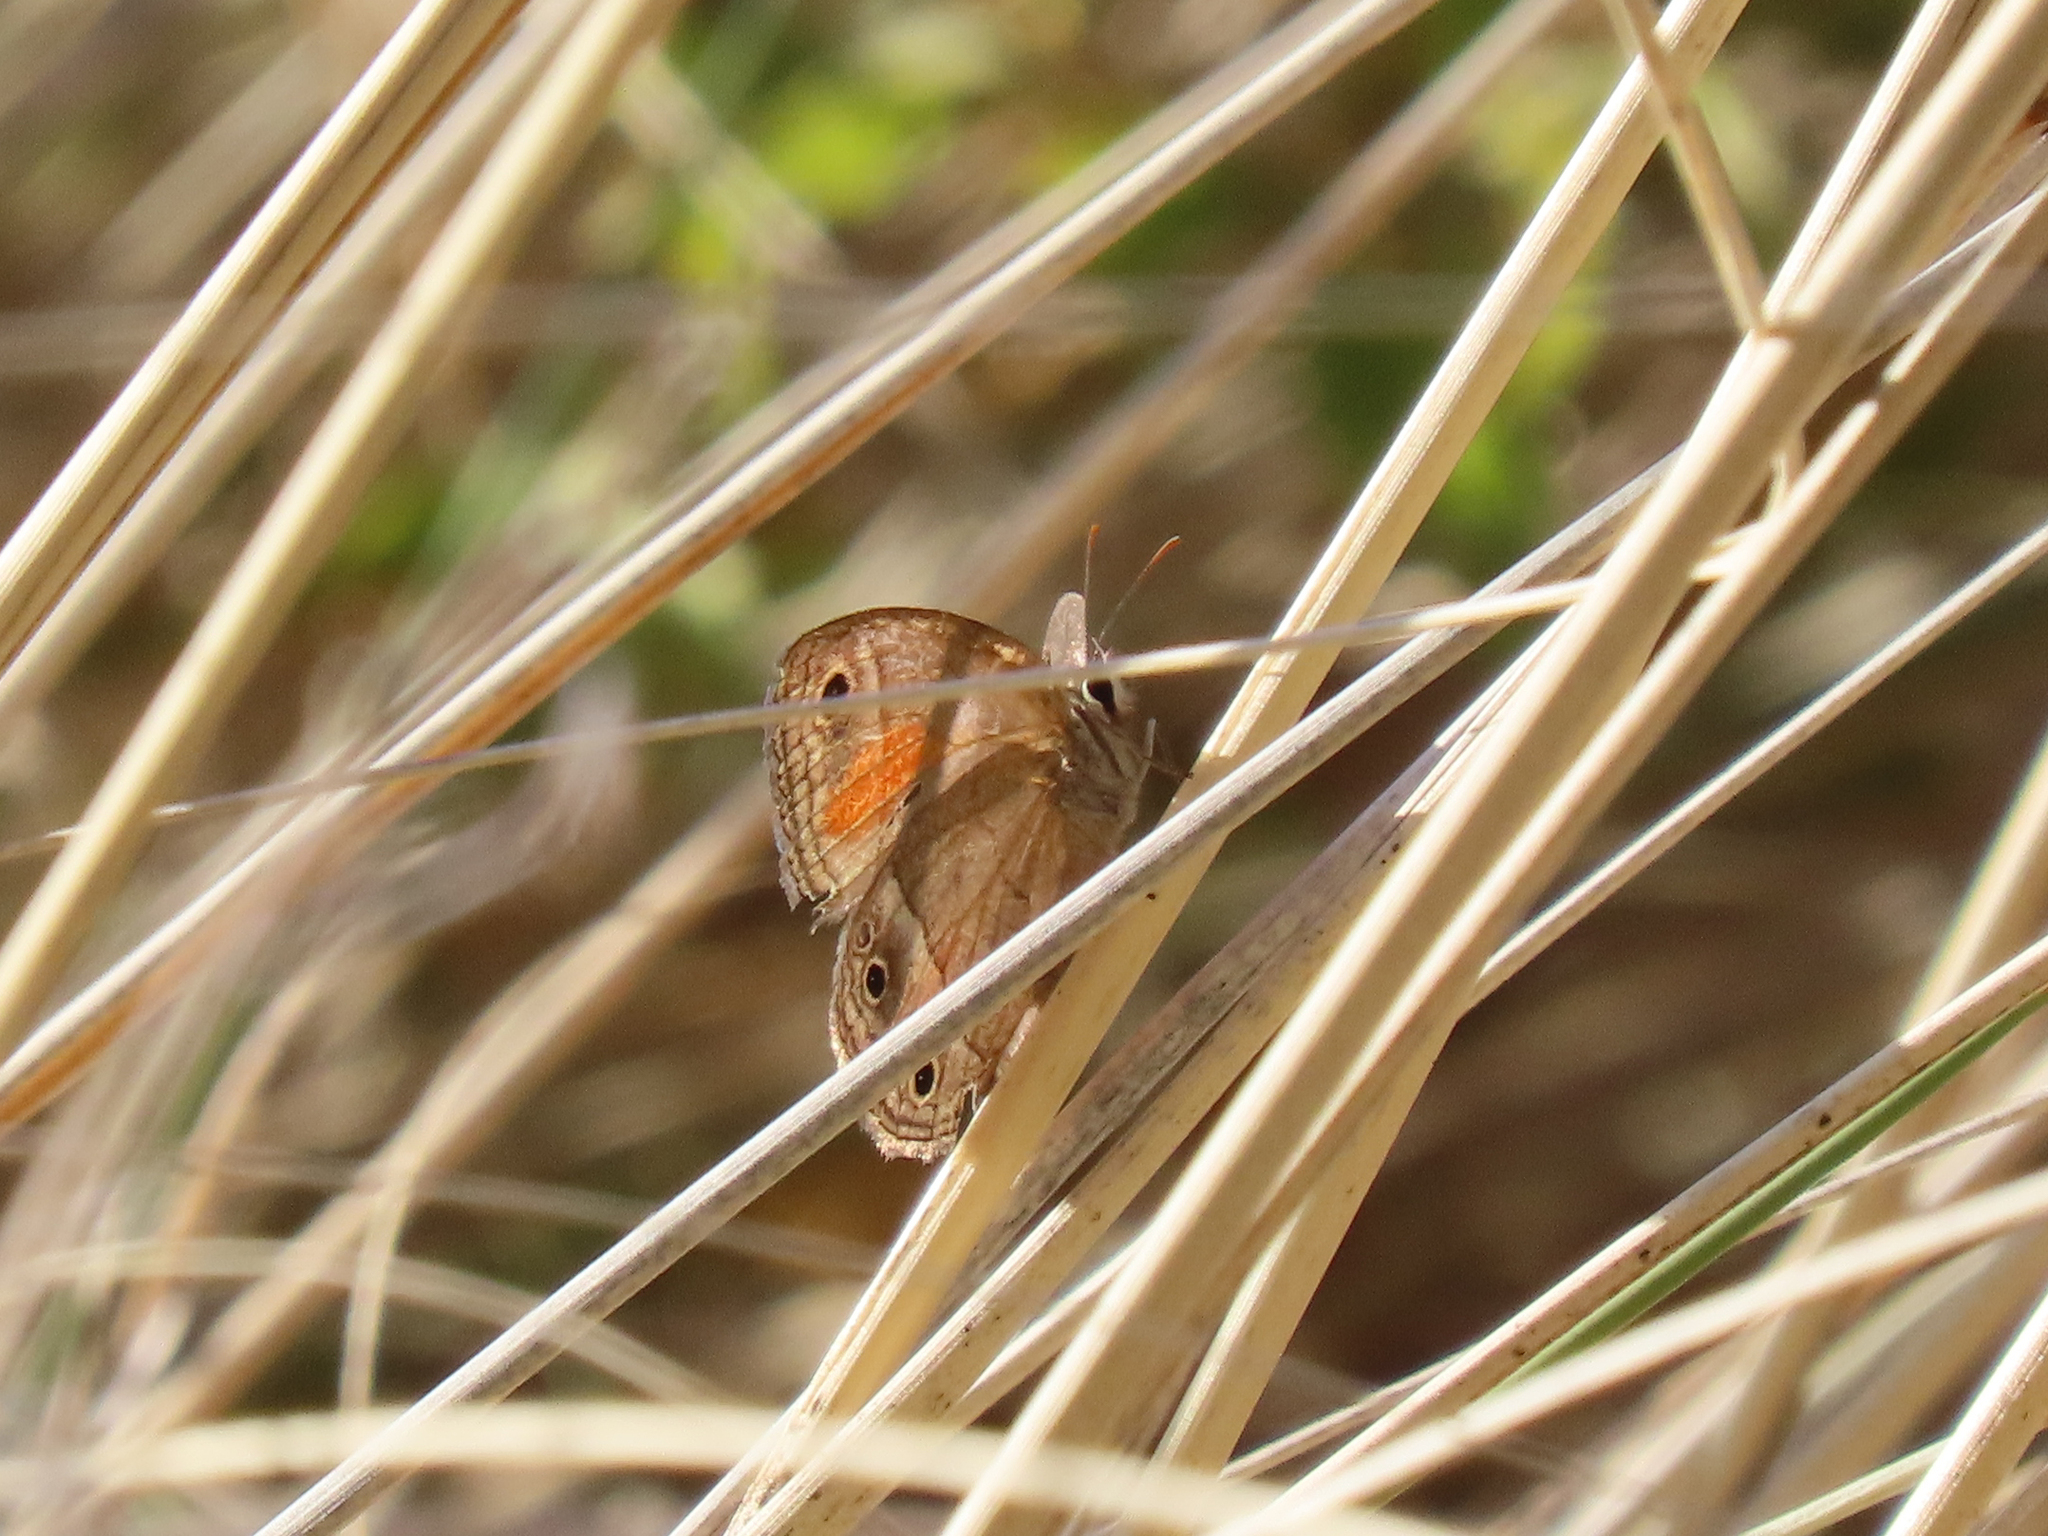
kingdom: Animalia
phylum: Arthropoda
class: Insecta
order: Lepidoptera
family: Nymphalidae
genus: Euptychia
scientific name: Euptychia
